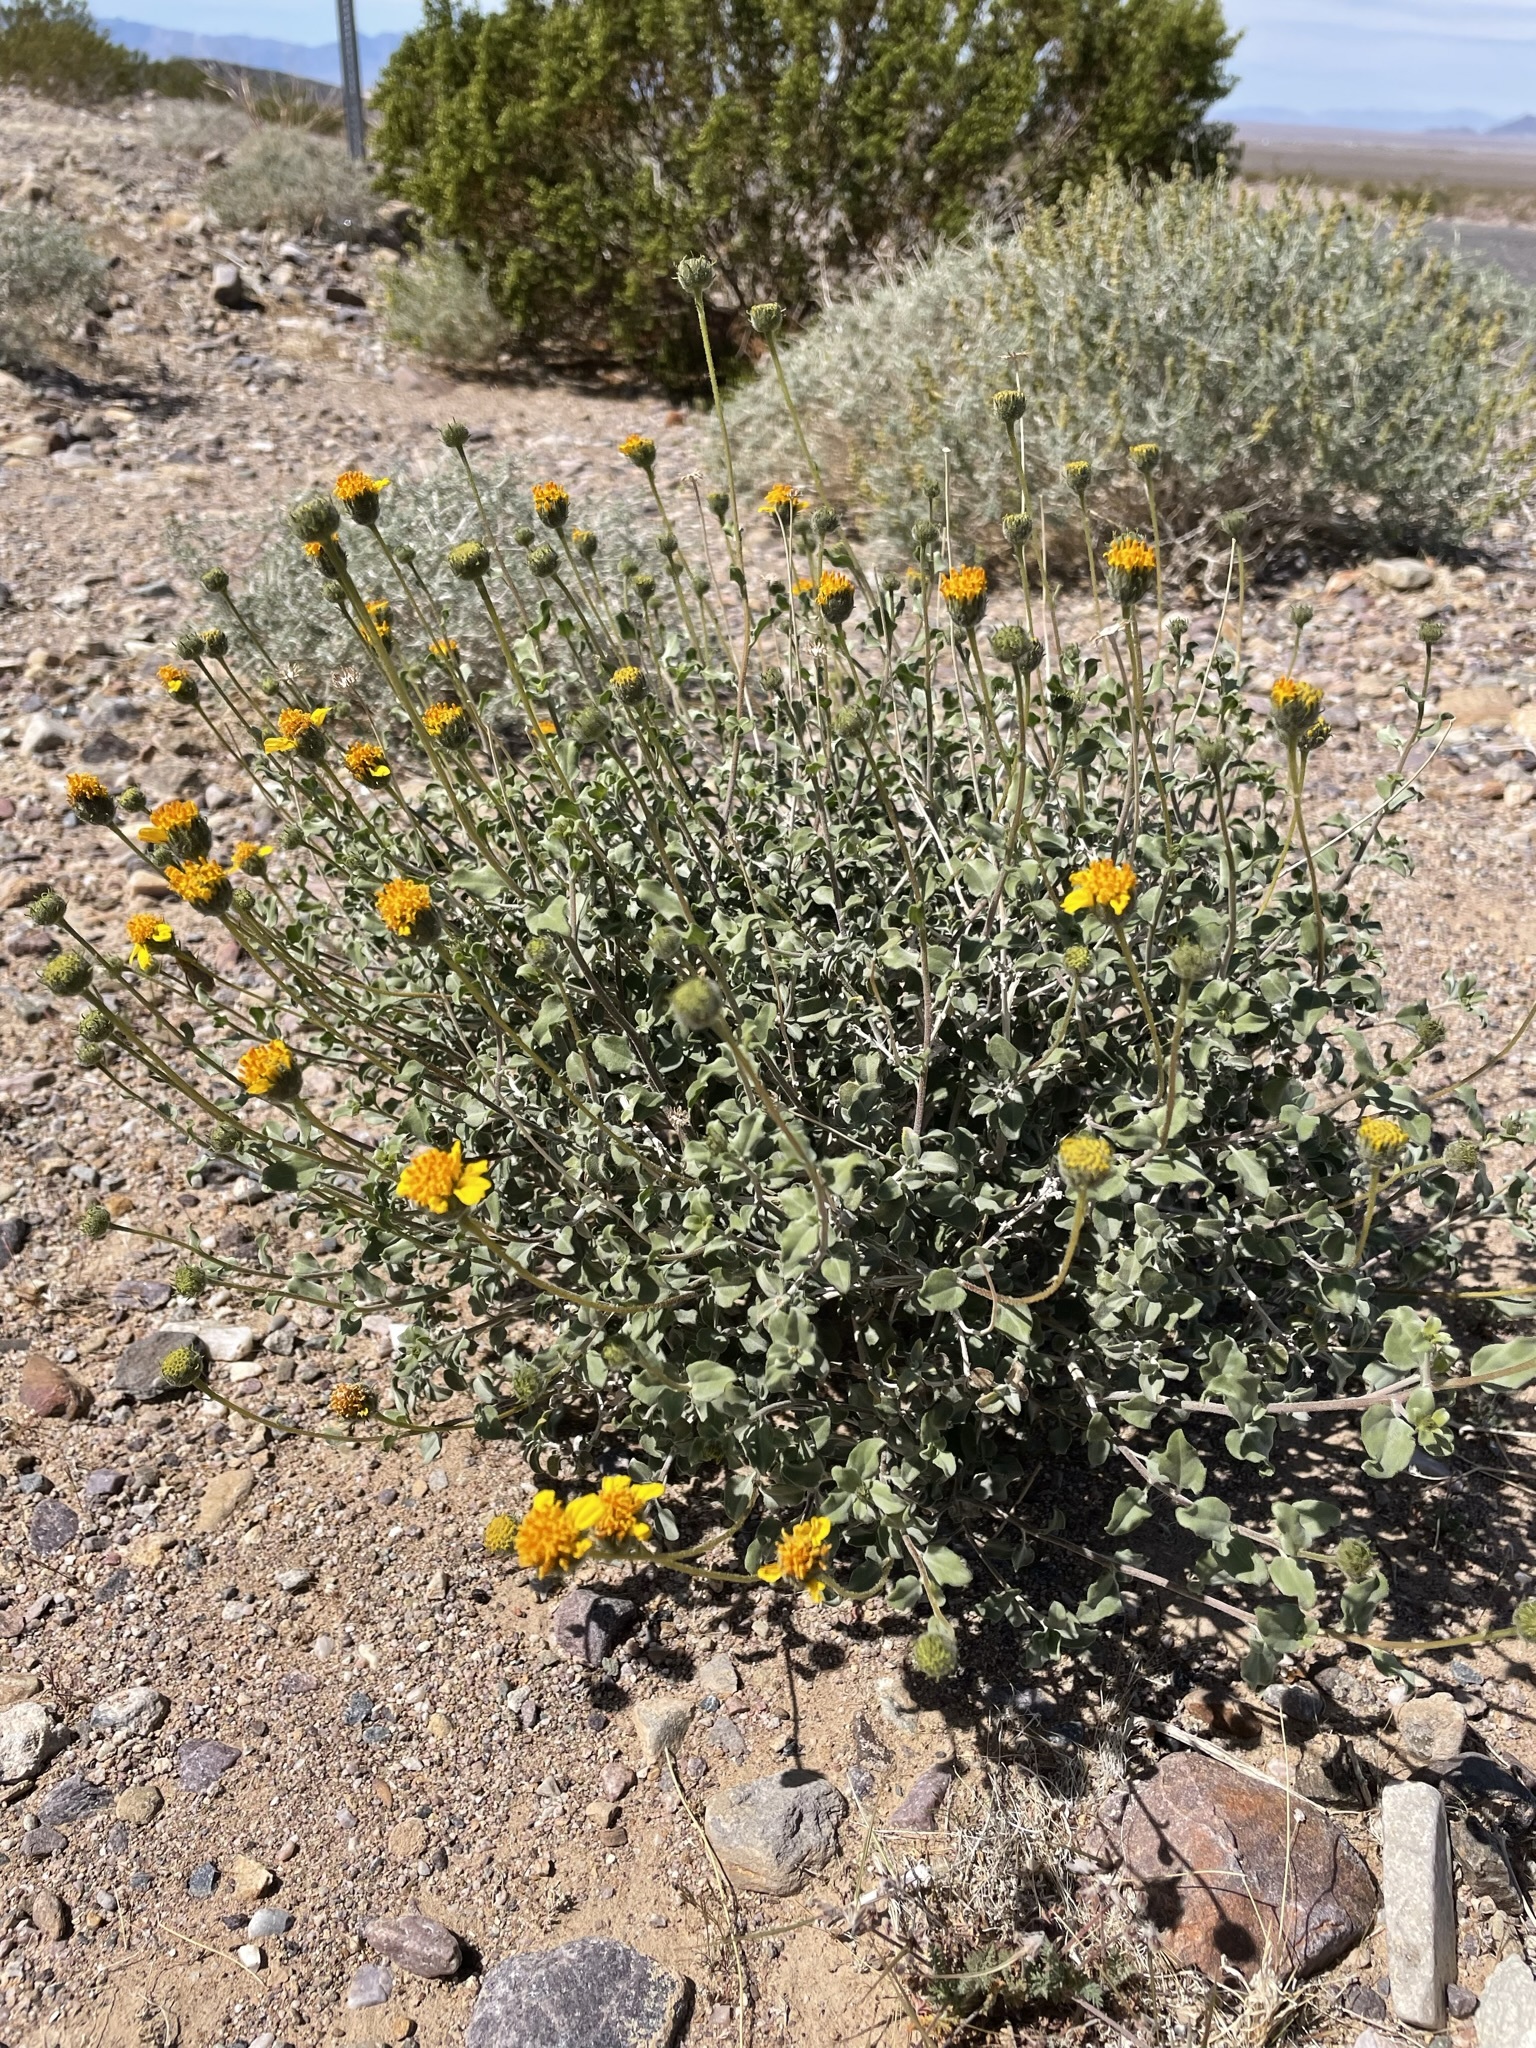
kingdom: Plantae
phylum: Tracheophyta
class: Magnoliopsida
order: Asterales
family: Asteraceae
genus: Encelia
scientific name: Encelia virginensis
